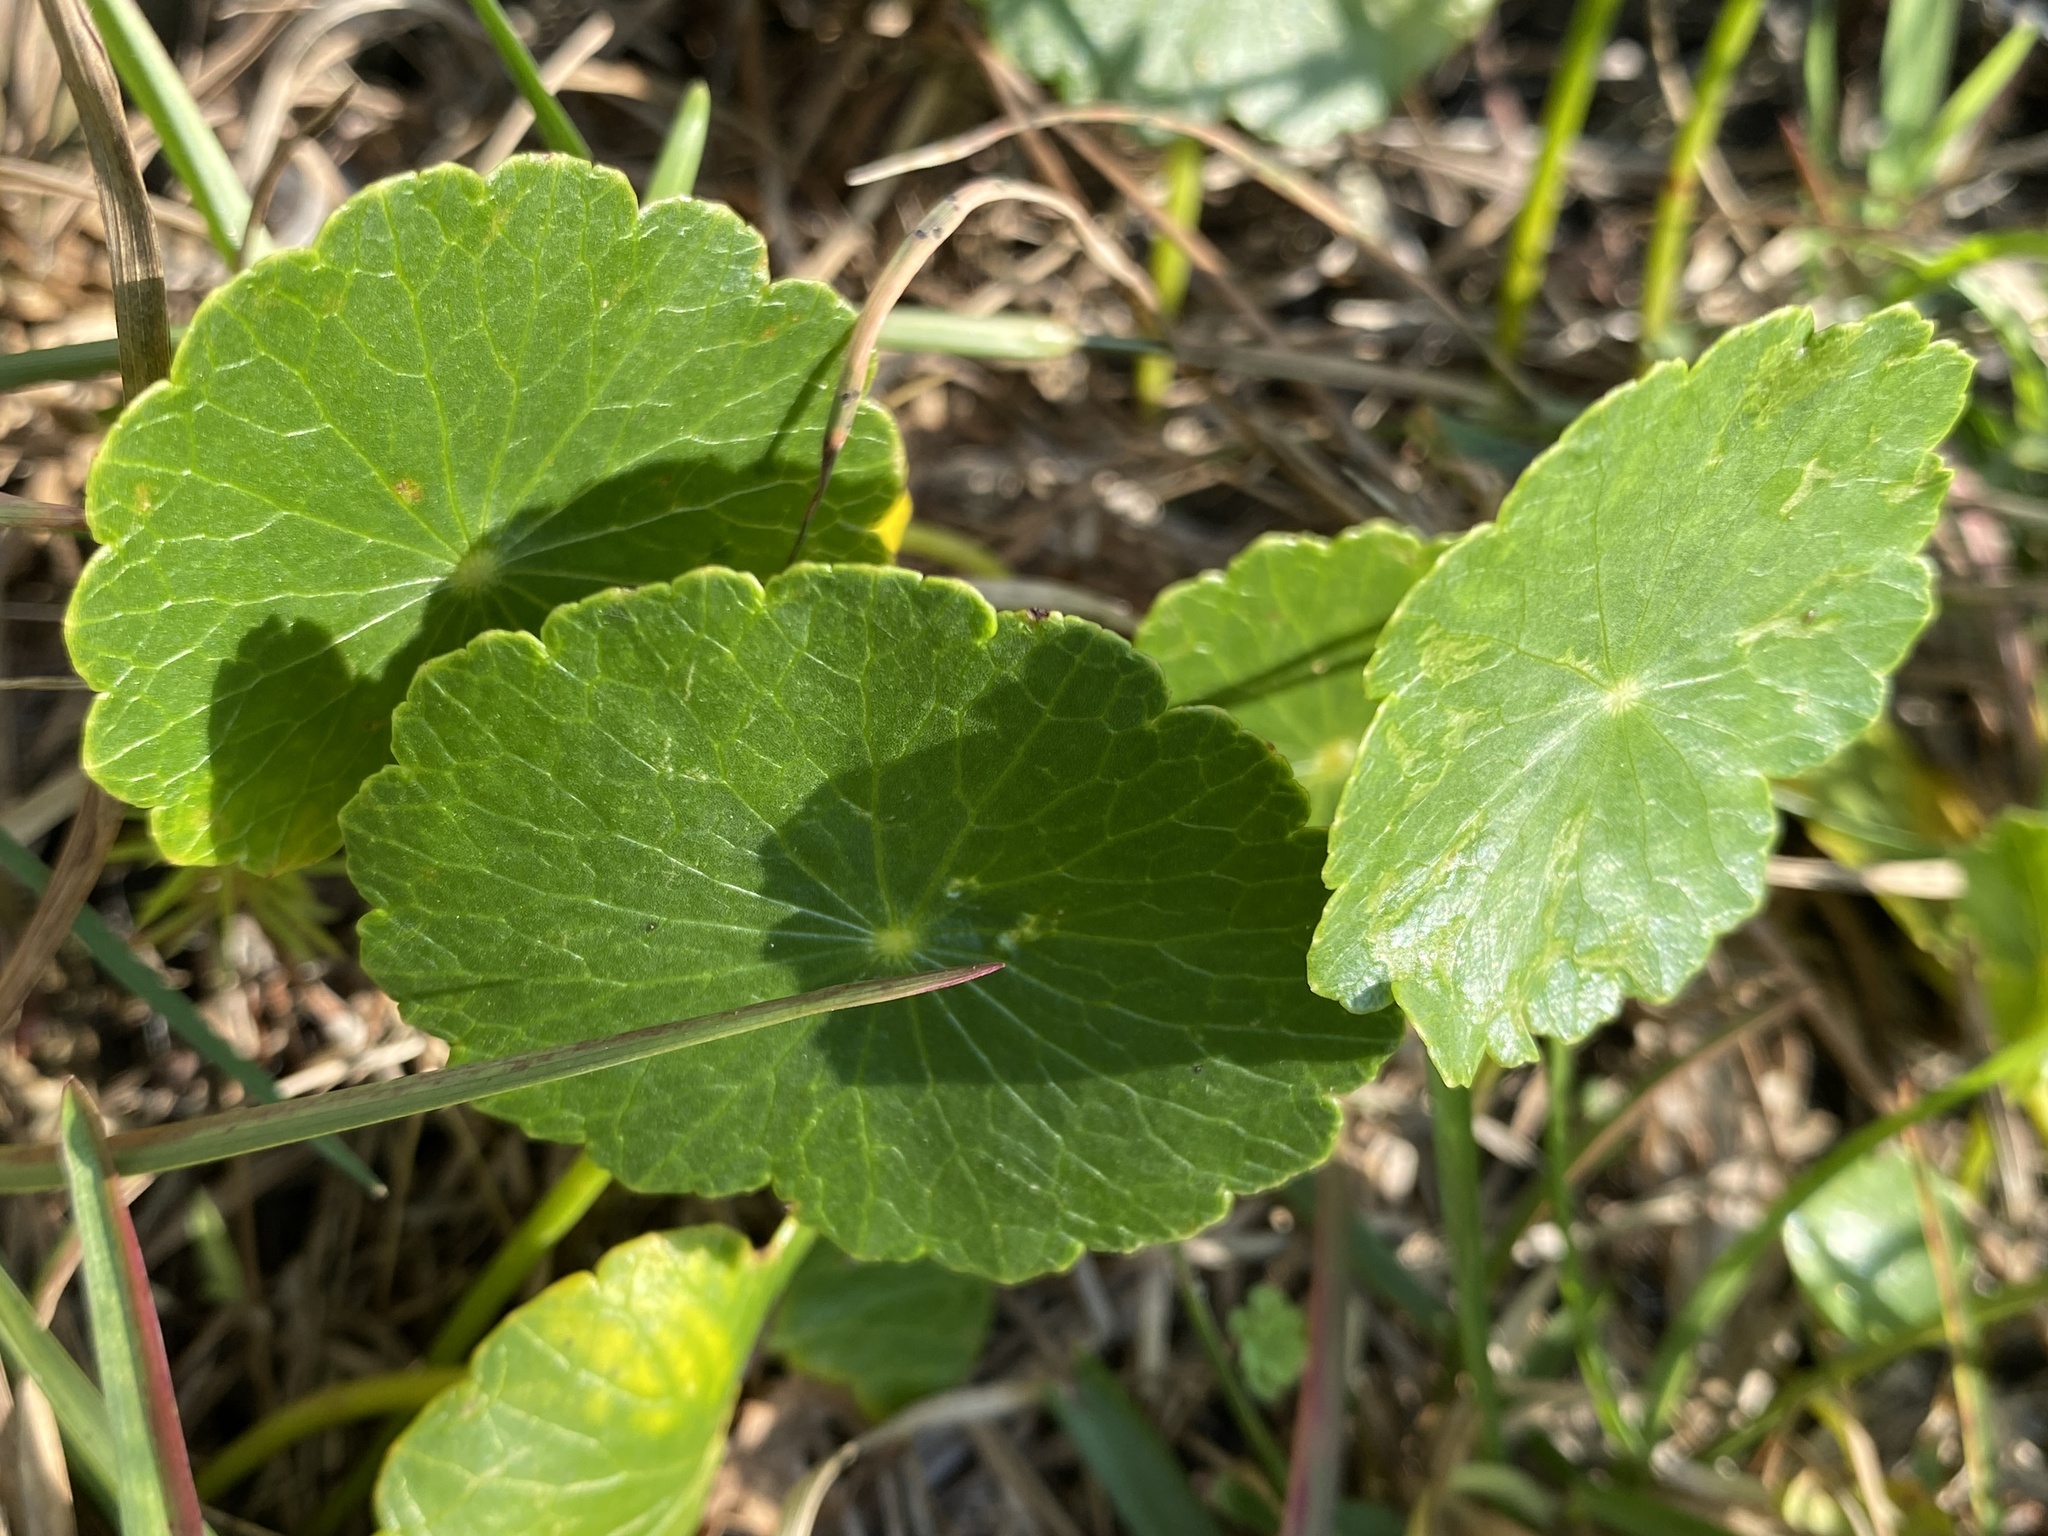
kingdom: Plantae
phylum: Tracheophyta
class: Magnoliopsida
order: Apiales
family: Araliaceae
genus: Hydrocotyle
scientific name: Hydrocotyle bonariensis
